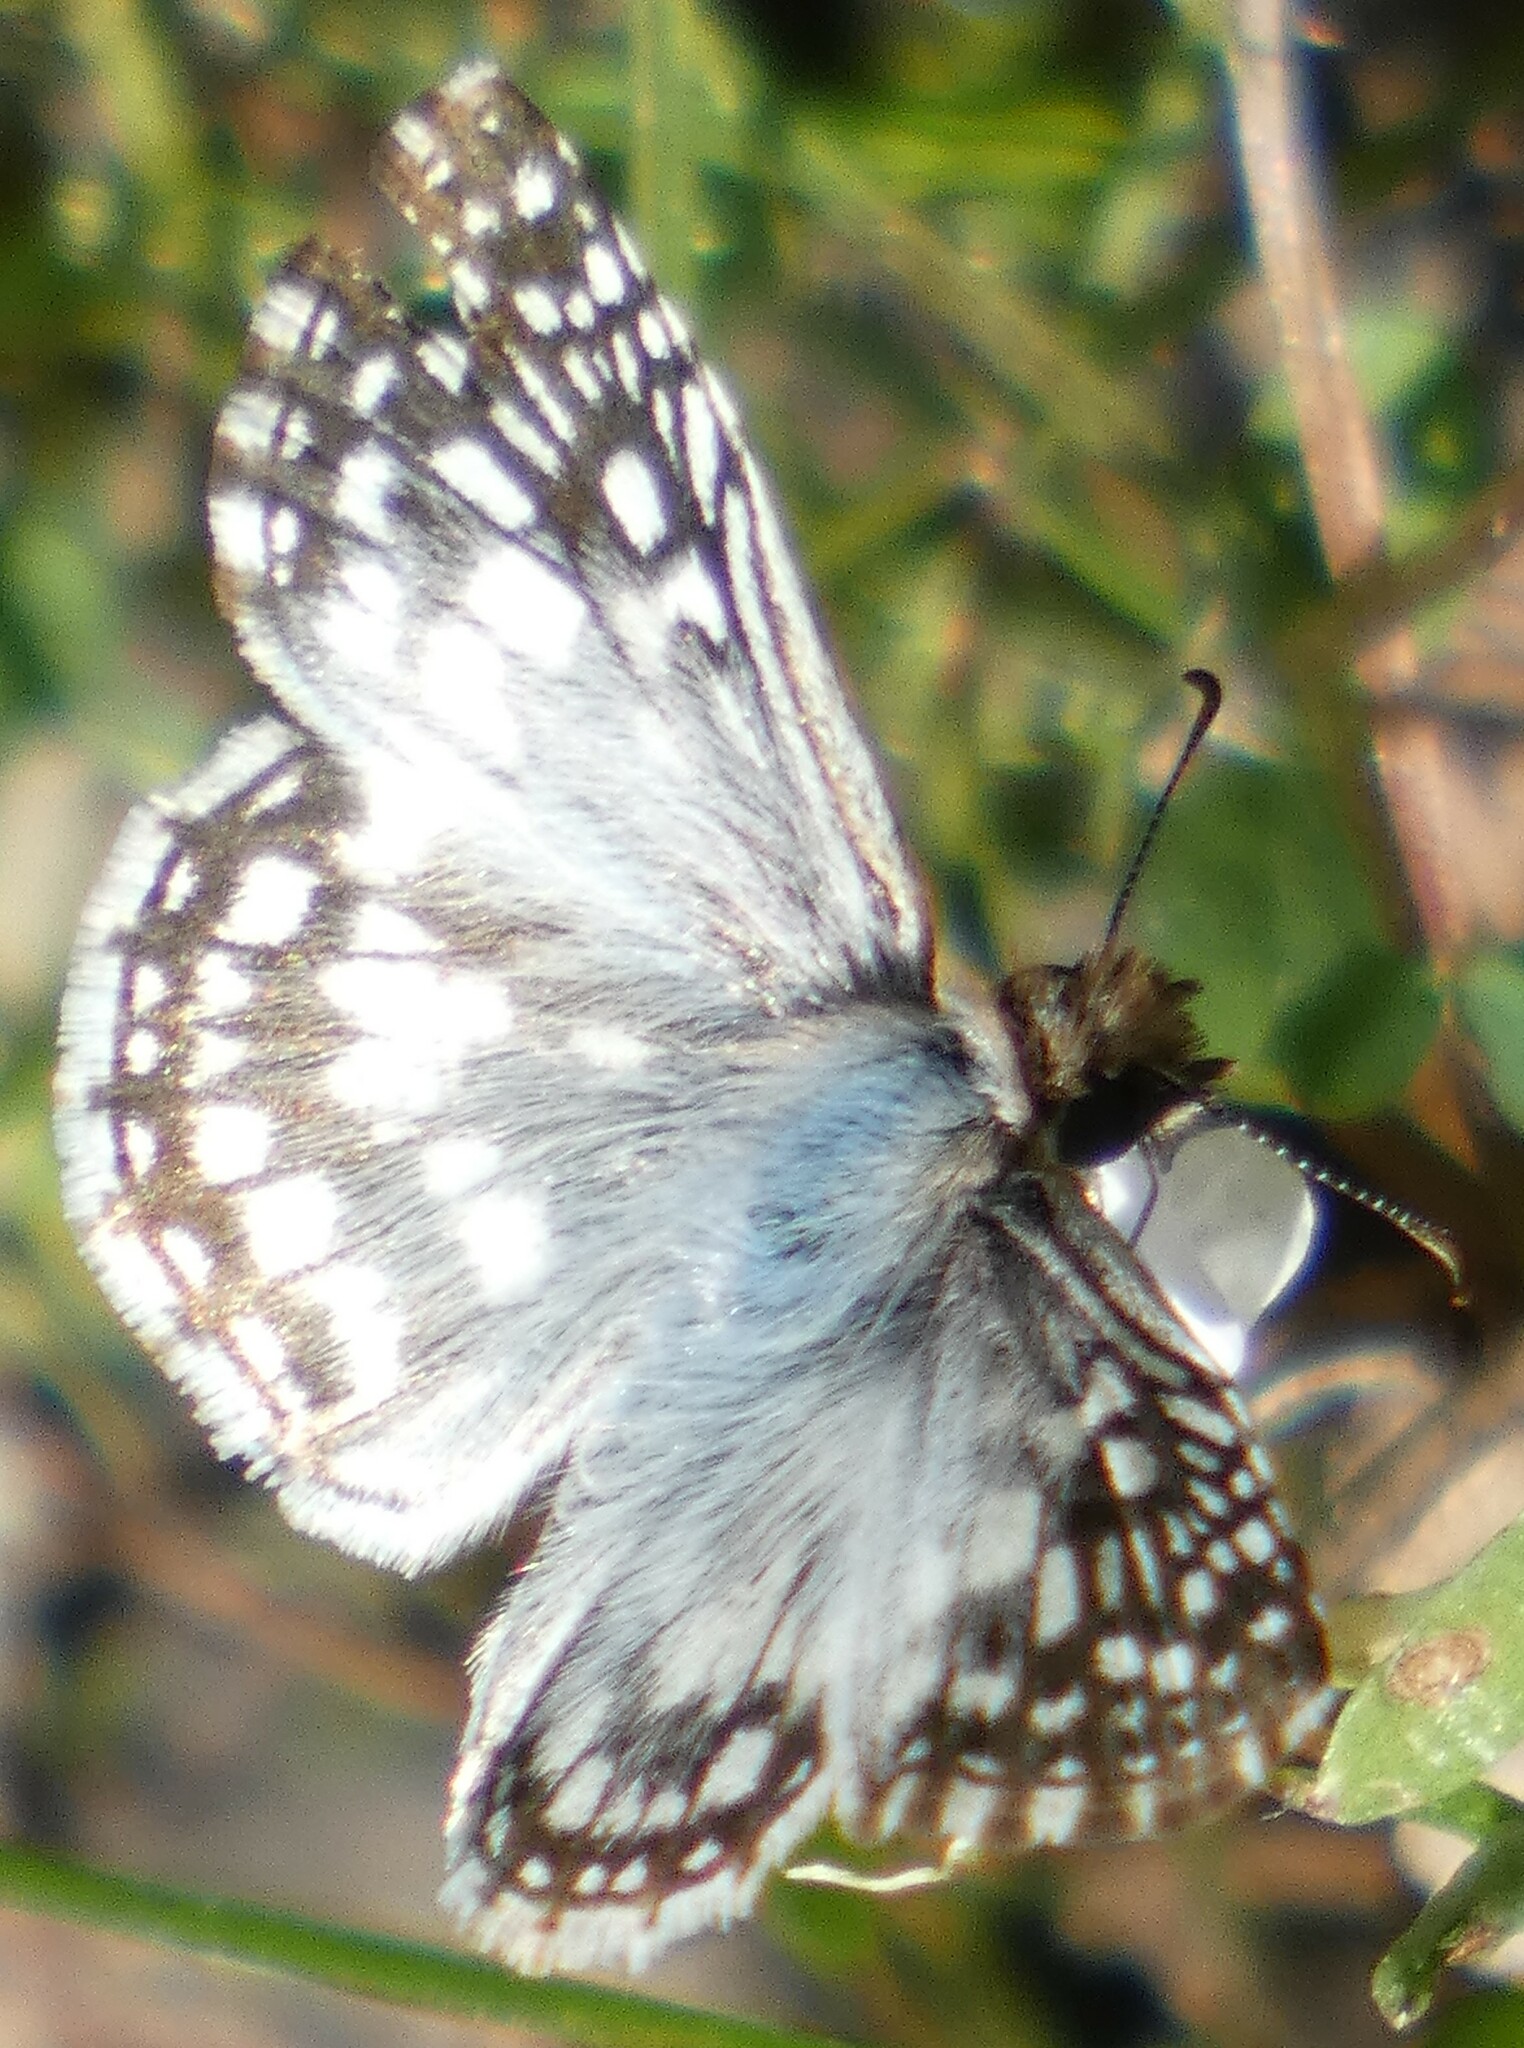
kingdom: Animalia
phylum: Arthropoda
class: Insecta
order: Lepidoptera
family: Hesperiidae
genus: Pyrgus
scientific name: Pyrgus oileus
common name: Tropical checkered-skipper
